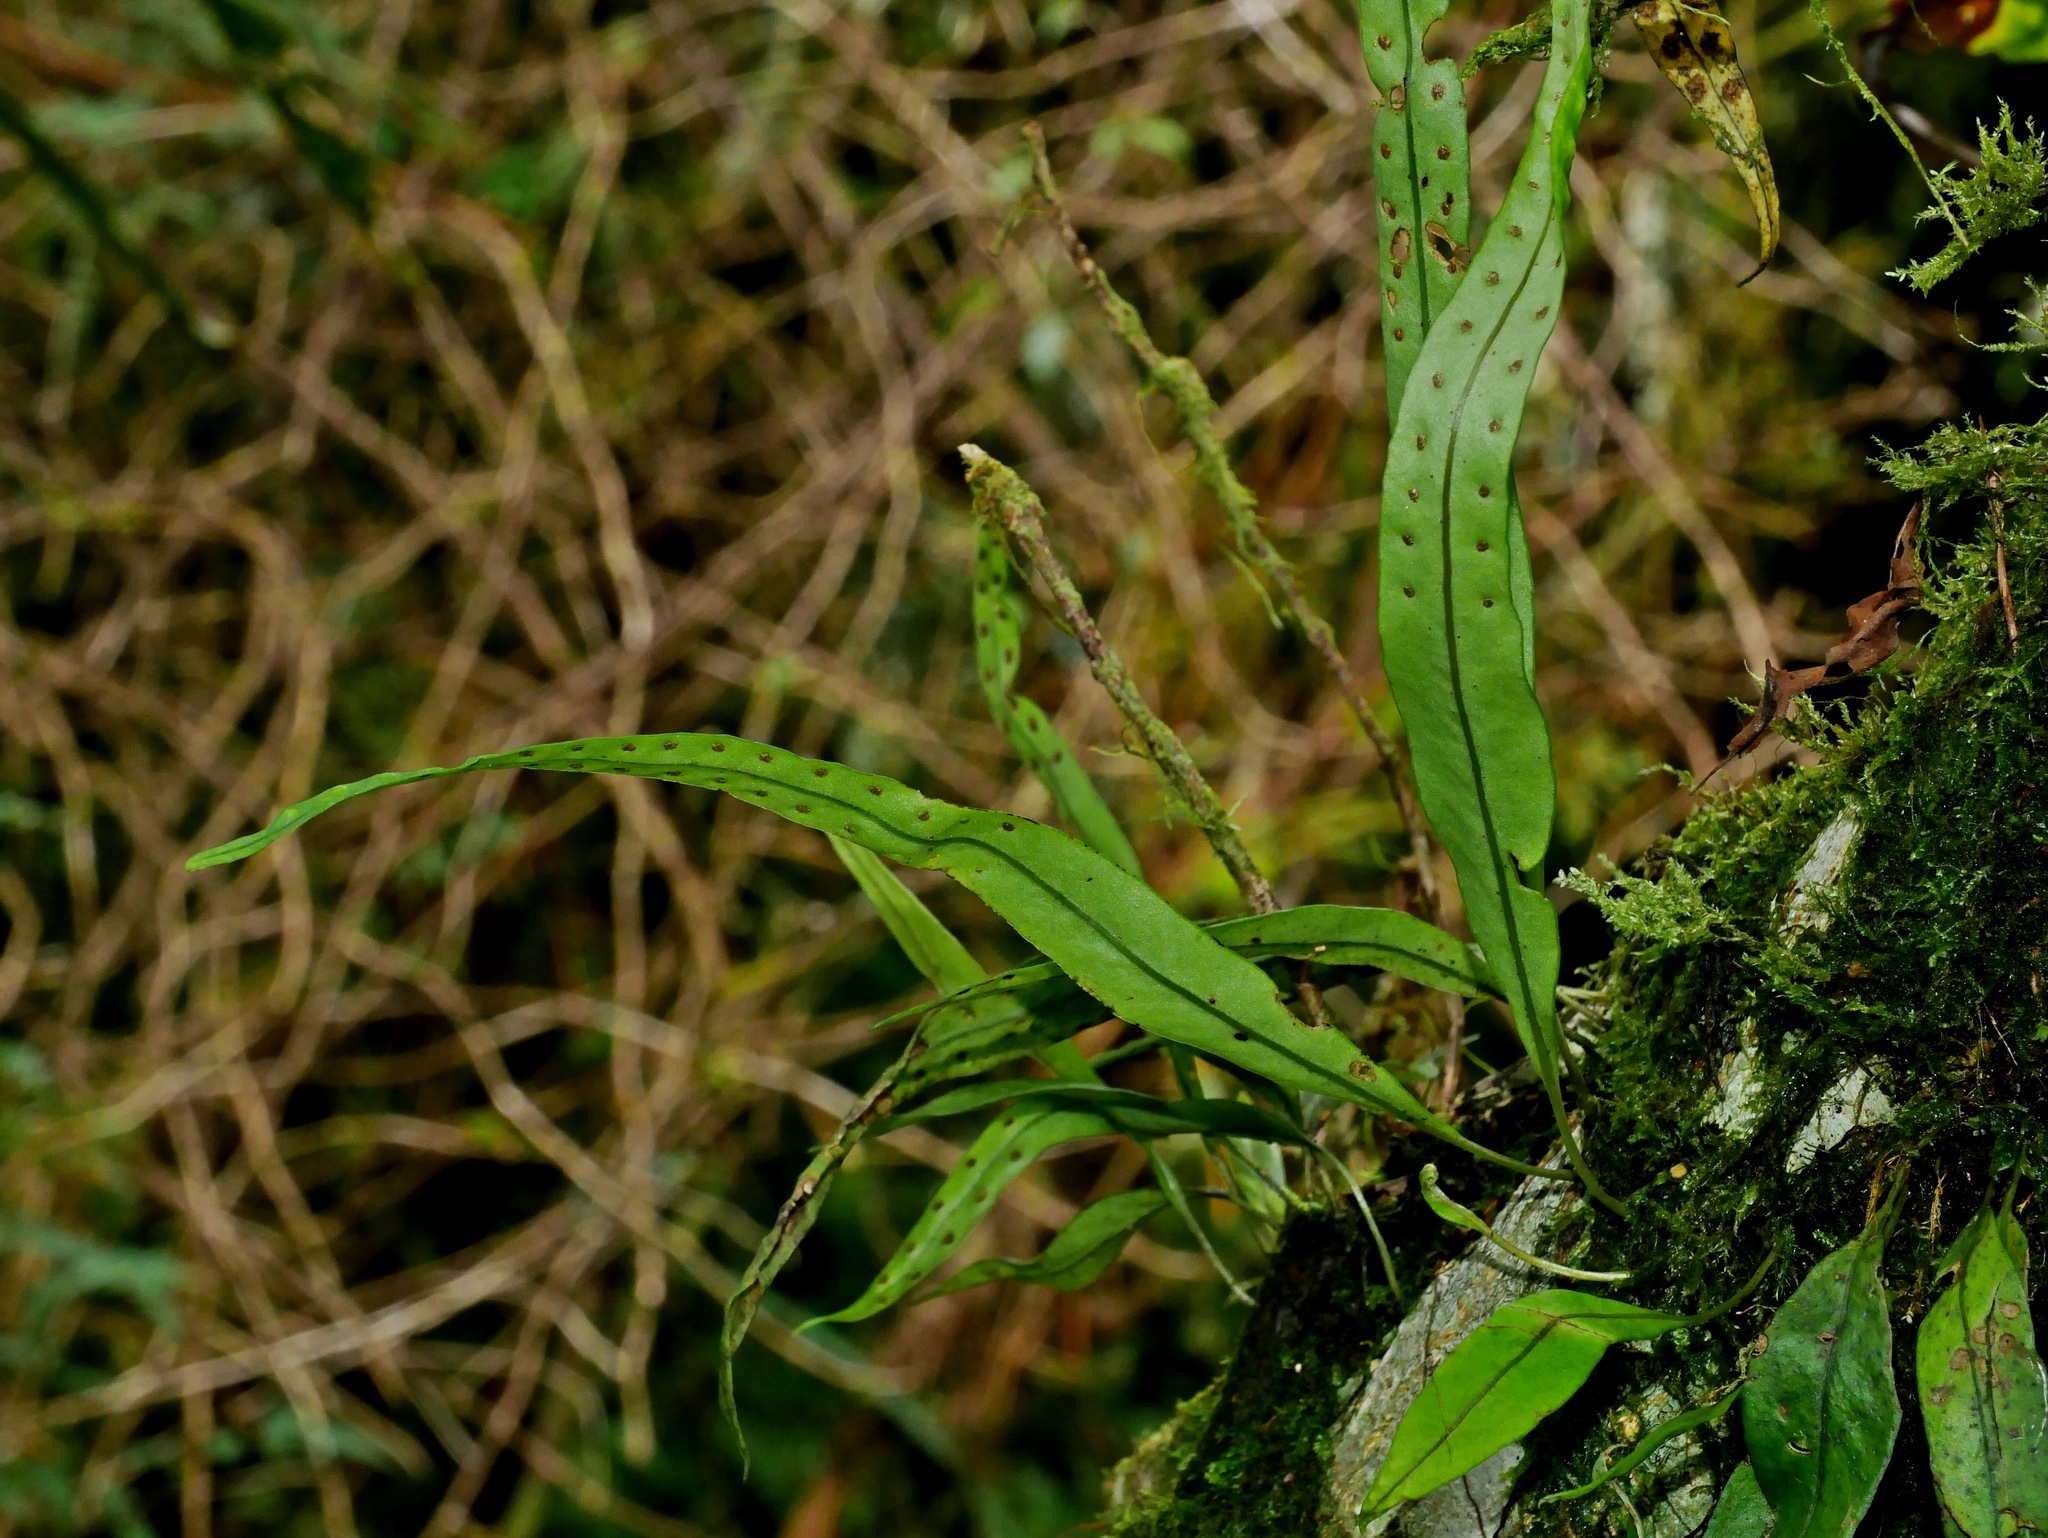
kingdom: Plantae
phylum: Tracheophyta
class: Polypodiopsida
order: Polypodiales
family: Polypodiaceae
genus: Lepisorus
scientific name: Lepisorus heterolepis
